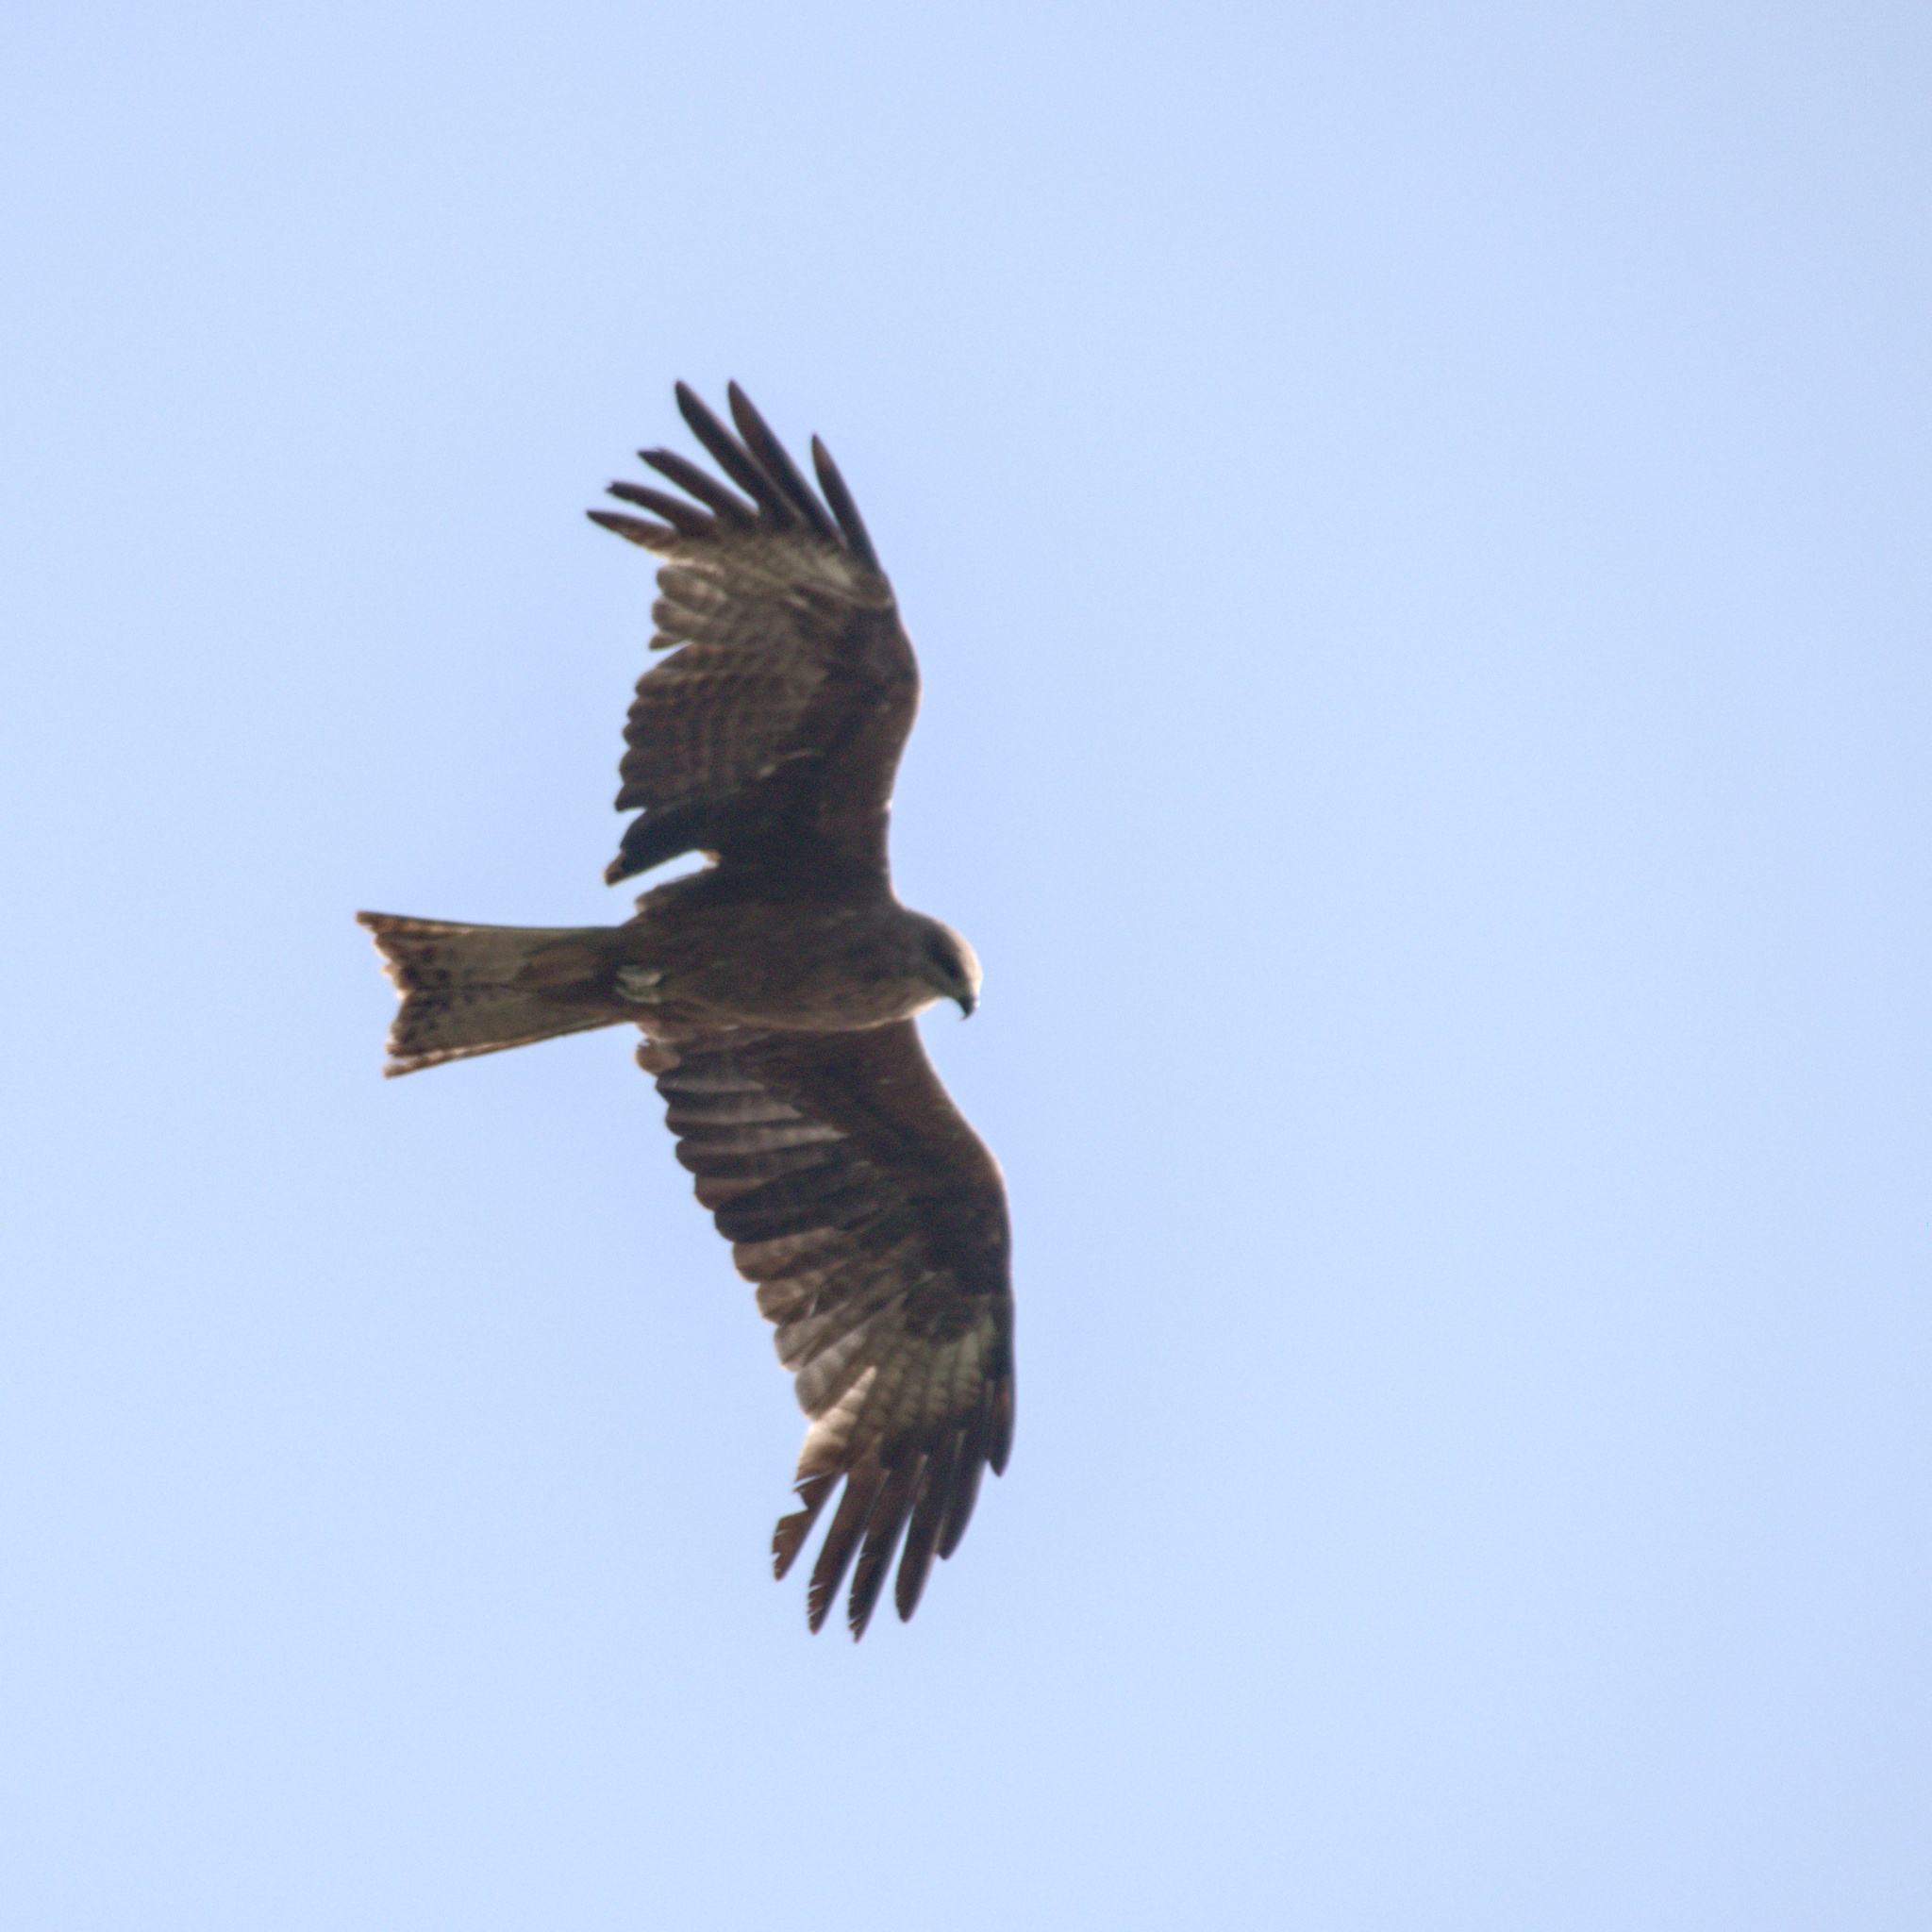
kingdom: Animalia
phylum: Chordata
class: Aves
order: Accipitriformes
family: Accipitridae
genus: Milvus
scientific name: Milvus migrans
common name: Black kite
